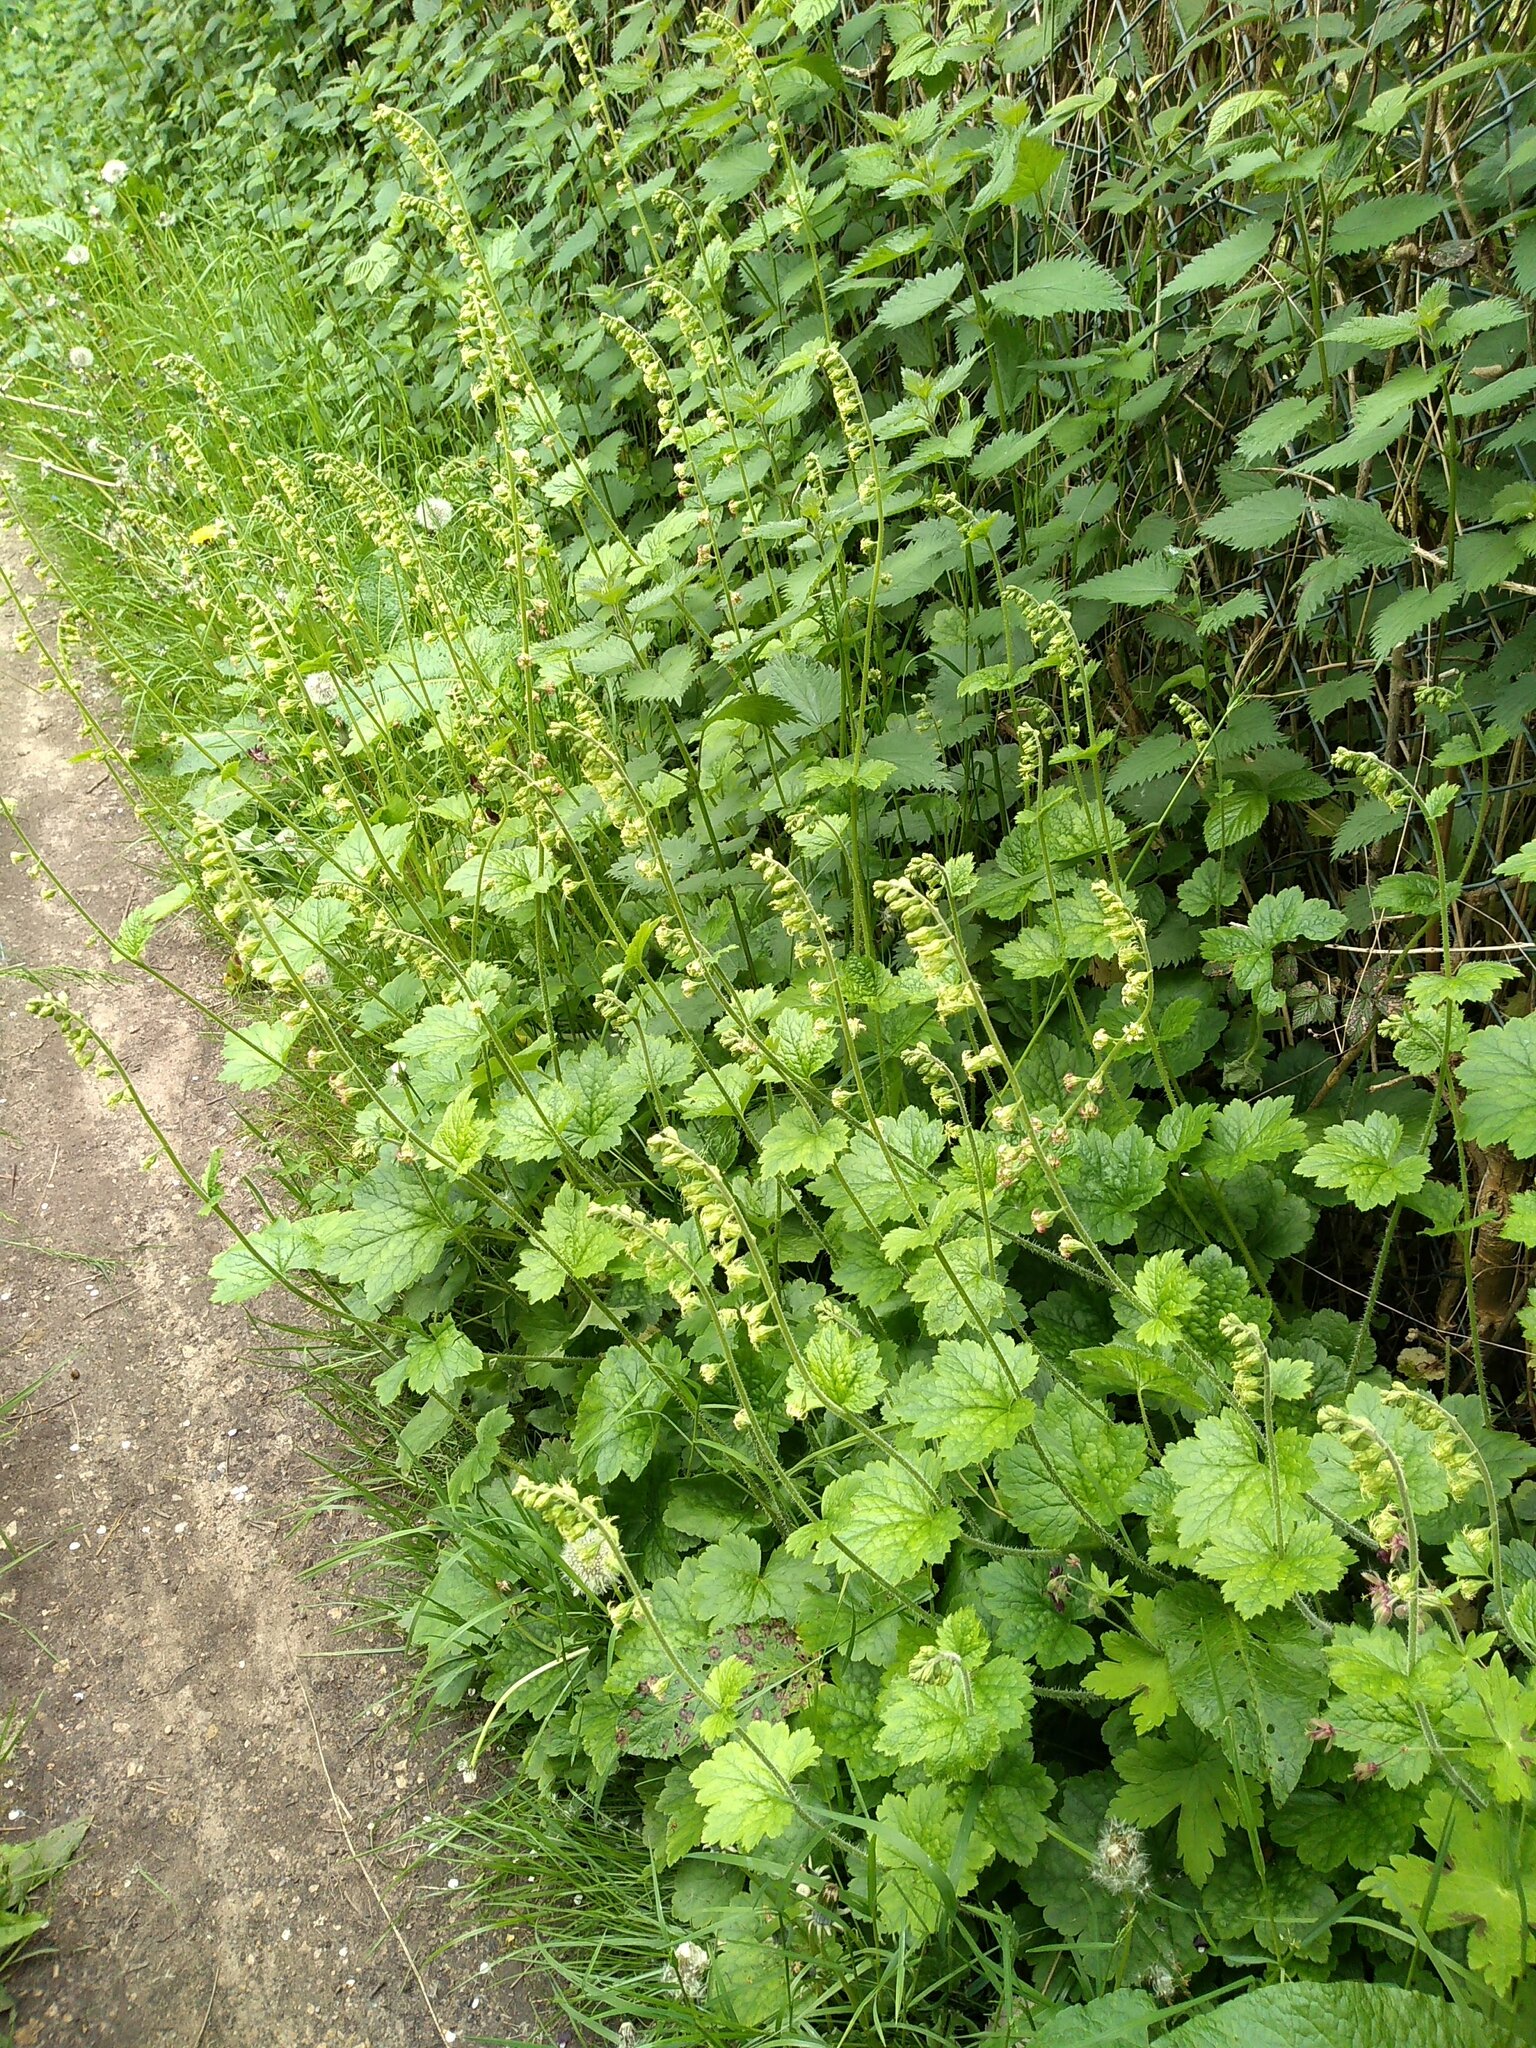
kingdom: Plantae
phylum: Tracheophyta
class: Magnoliopsida
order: Saxifragales
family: Saxifragaceae
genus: Tellima
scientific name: Tellima grandiflora
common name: Fringecups
